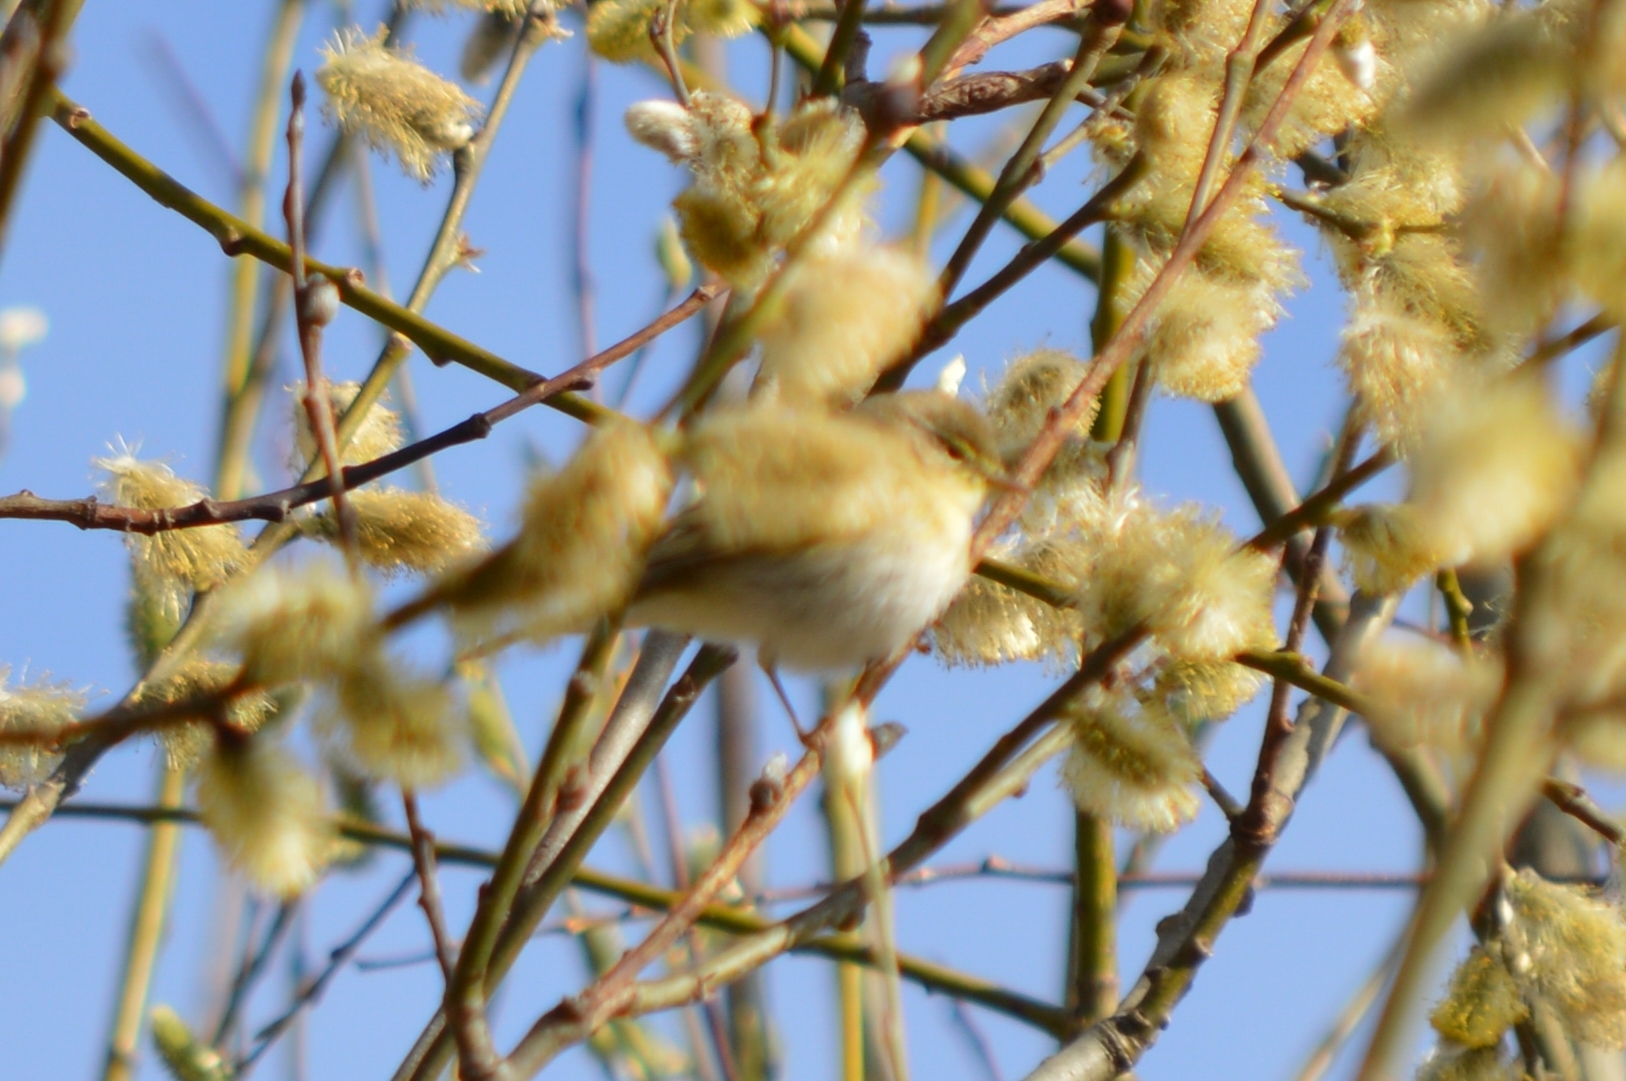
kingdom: Animalia
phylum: Chordata
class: Aves
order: Passeriformes
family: Phylloscopidae
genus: Phylloscopus
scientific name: Phylloscopus trochilus
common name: Willow warbler
